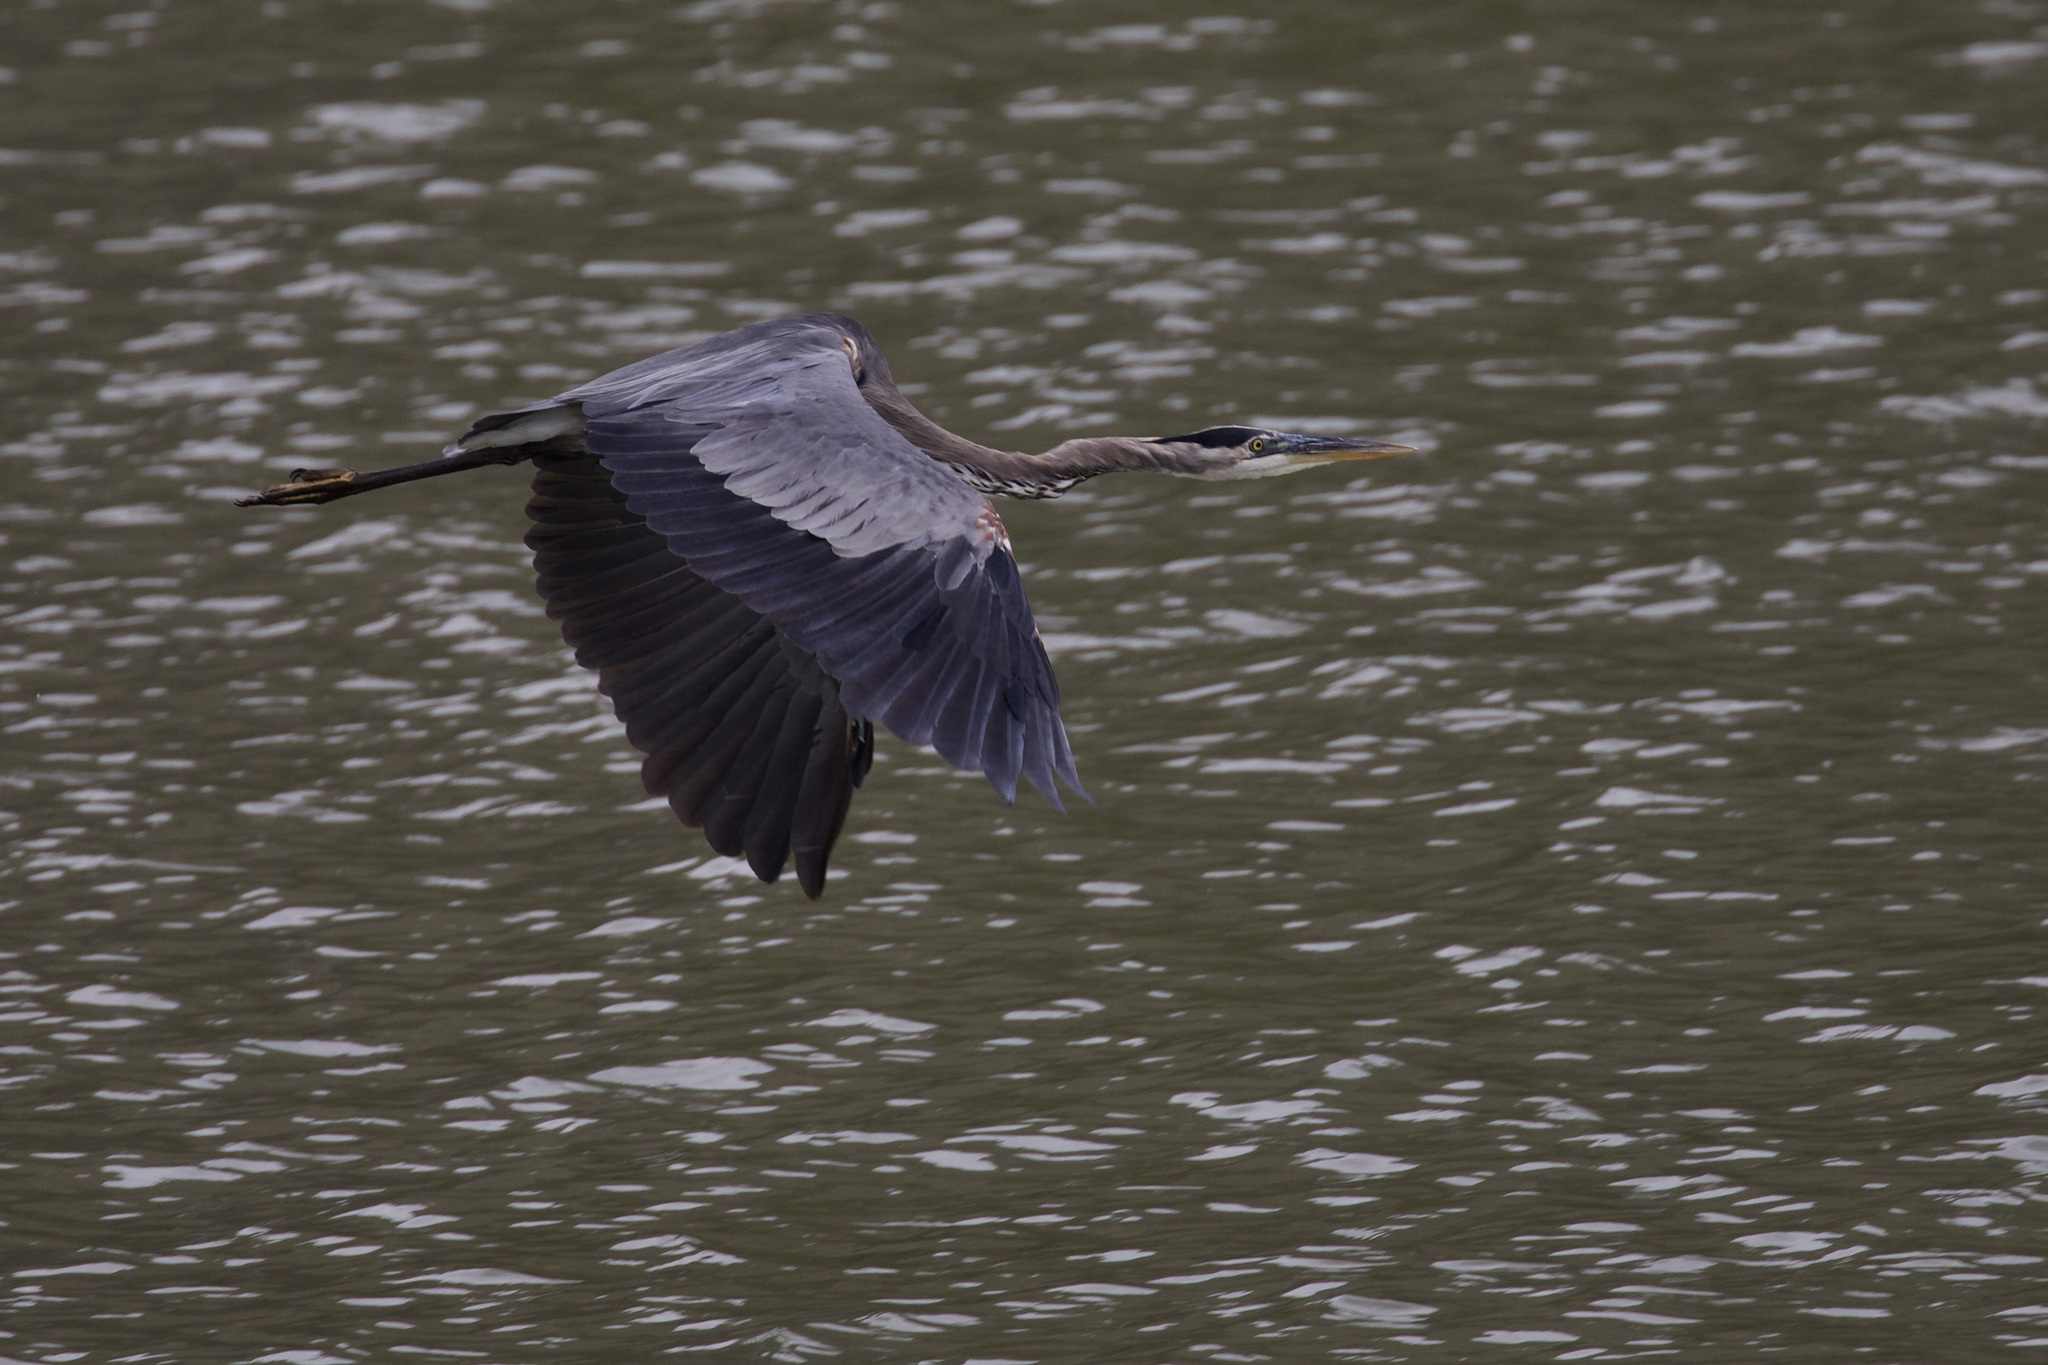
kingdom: Animalia
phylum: Chordata
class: Aves
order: Pelecaniformes
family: Ardeidae
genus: Ardea
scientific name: Ardea herodias
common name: Great blue heron
